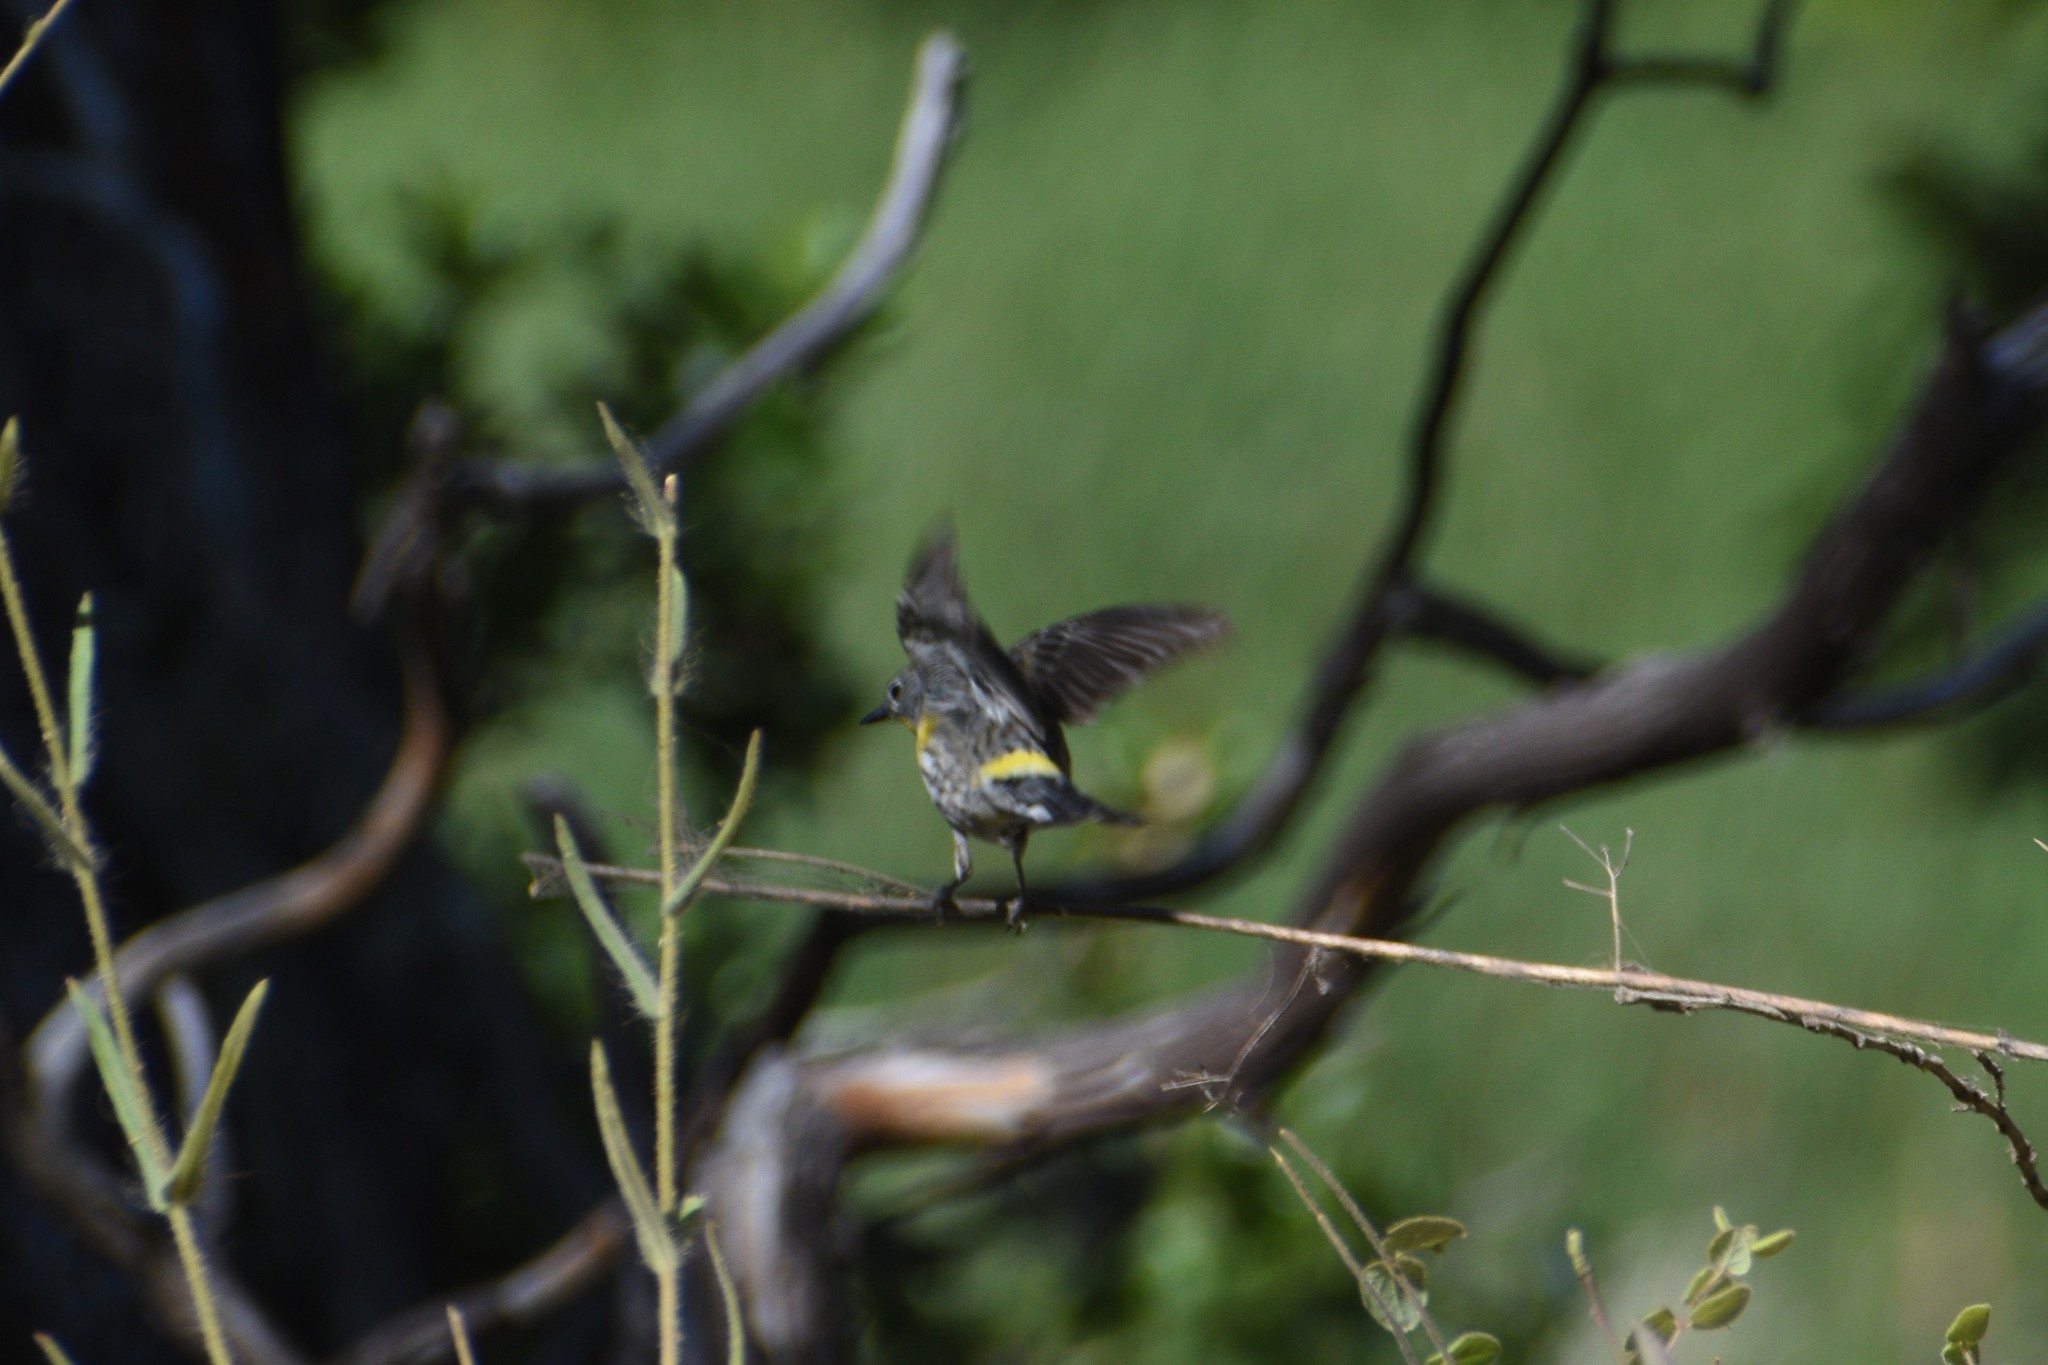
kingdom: Animalia
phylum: Chordata
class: Aves
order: Passeriformes
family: Parulidae
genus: Setophaga
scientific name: Setophaga coronata
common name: Myrtle warbler
